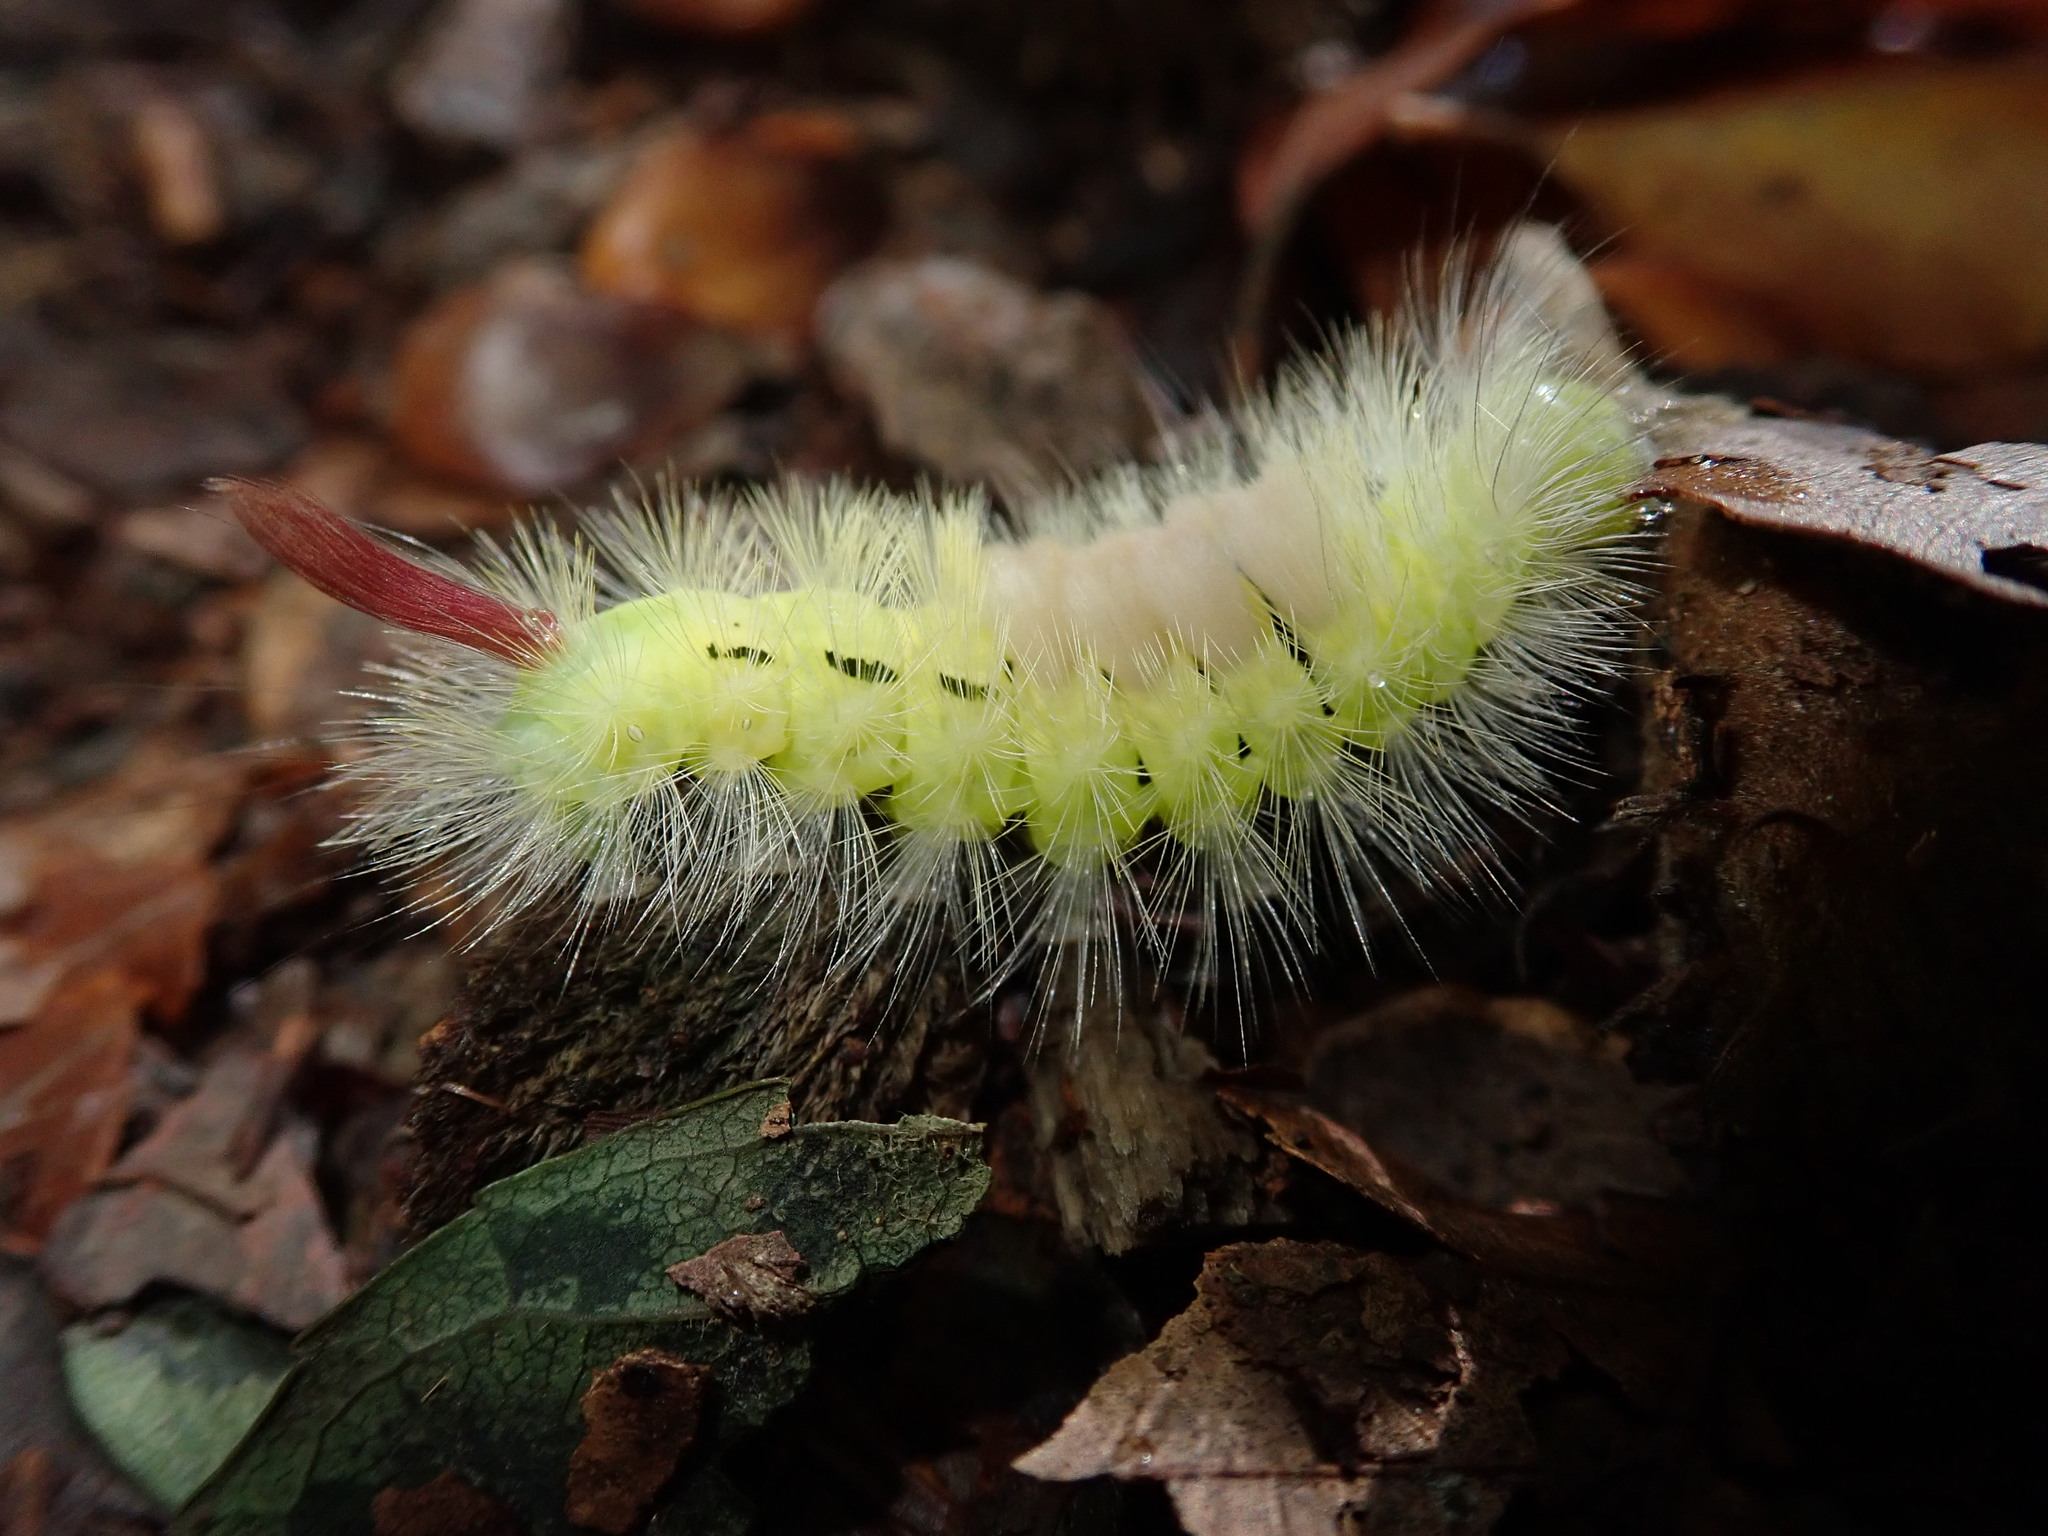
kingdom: Animalia
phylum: Arthropoda
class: Insecta
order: Lepidoptera
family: Erebidae
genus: Calliteara
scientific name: Calliteara pudibunda
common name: Pale tussock
